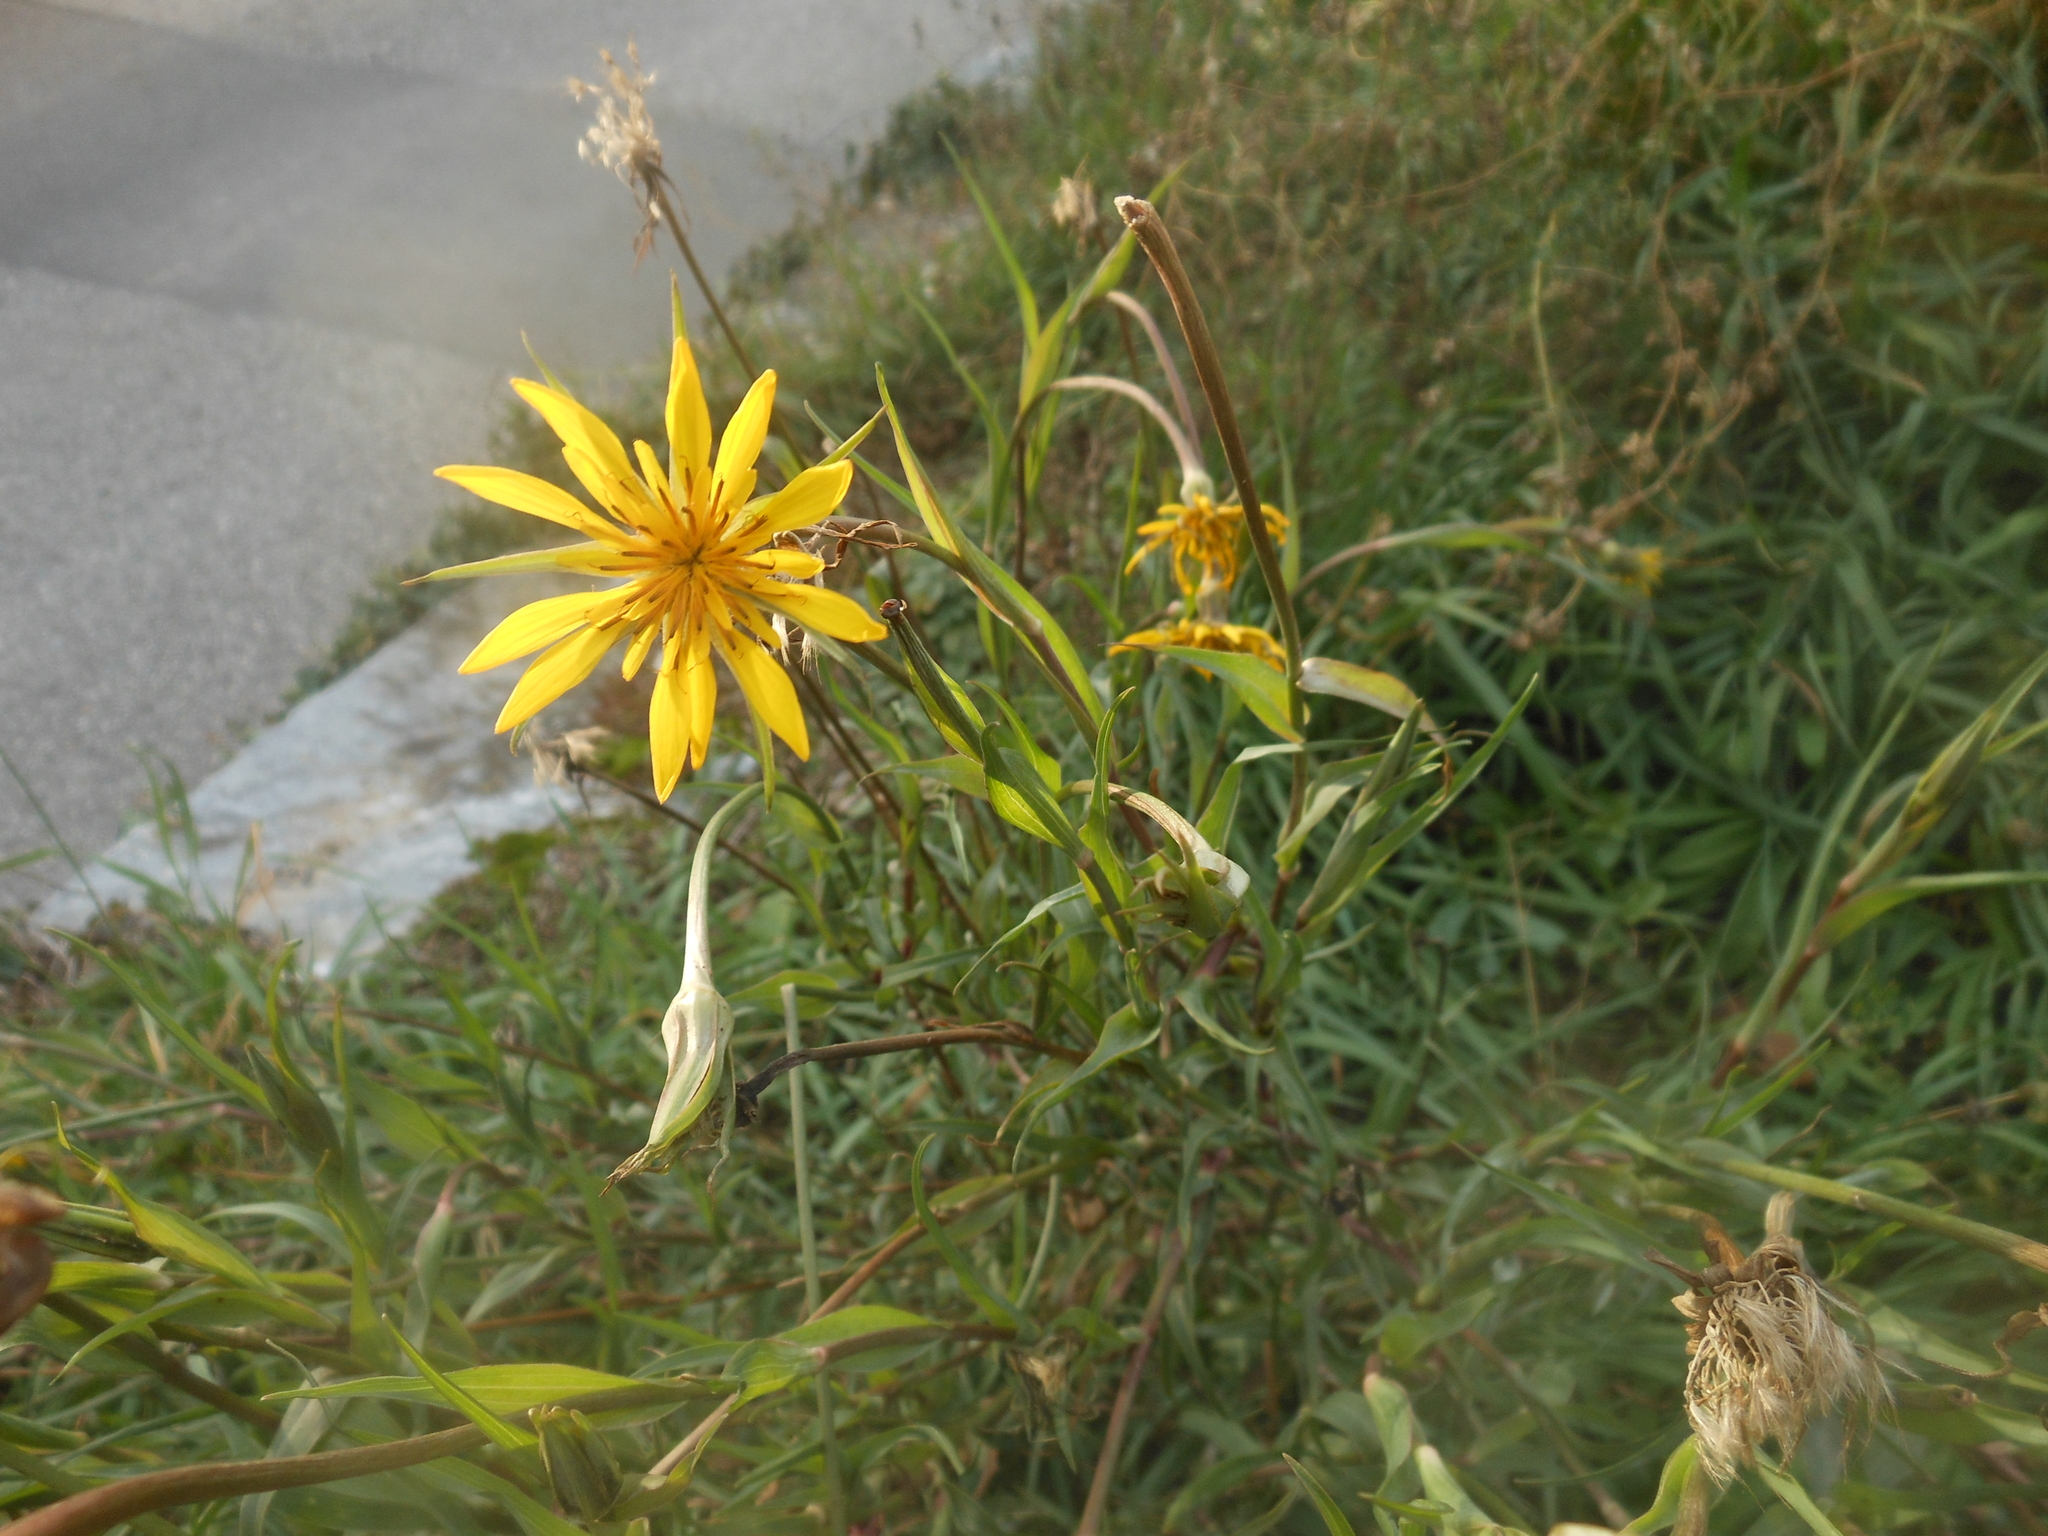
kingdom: Plantae
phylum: Tracheophyta
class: Magnoliopsida
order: Asterales
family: Asteraceae
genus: Tragopogon
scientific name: Tragopogon orientalis
